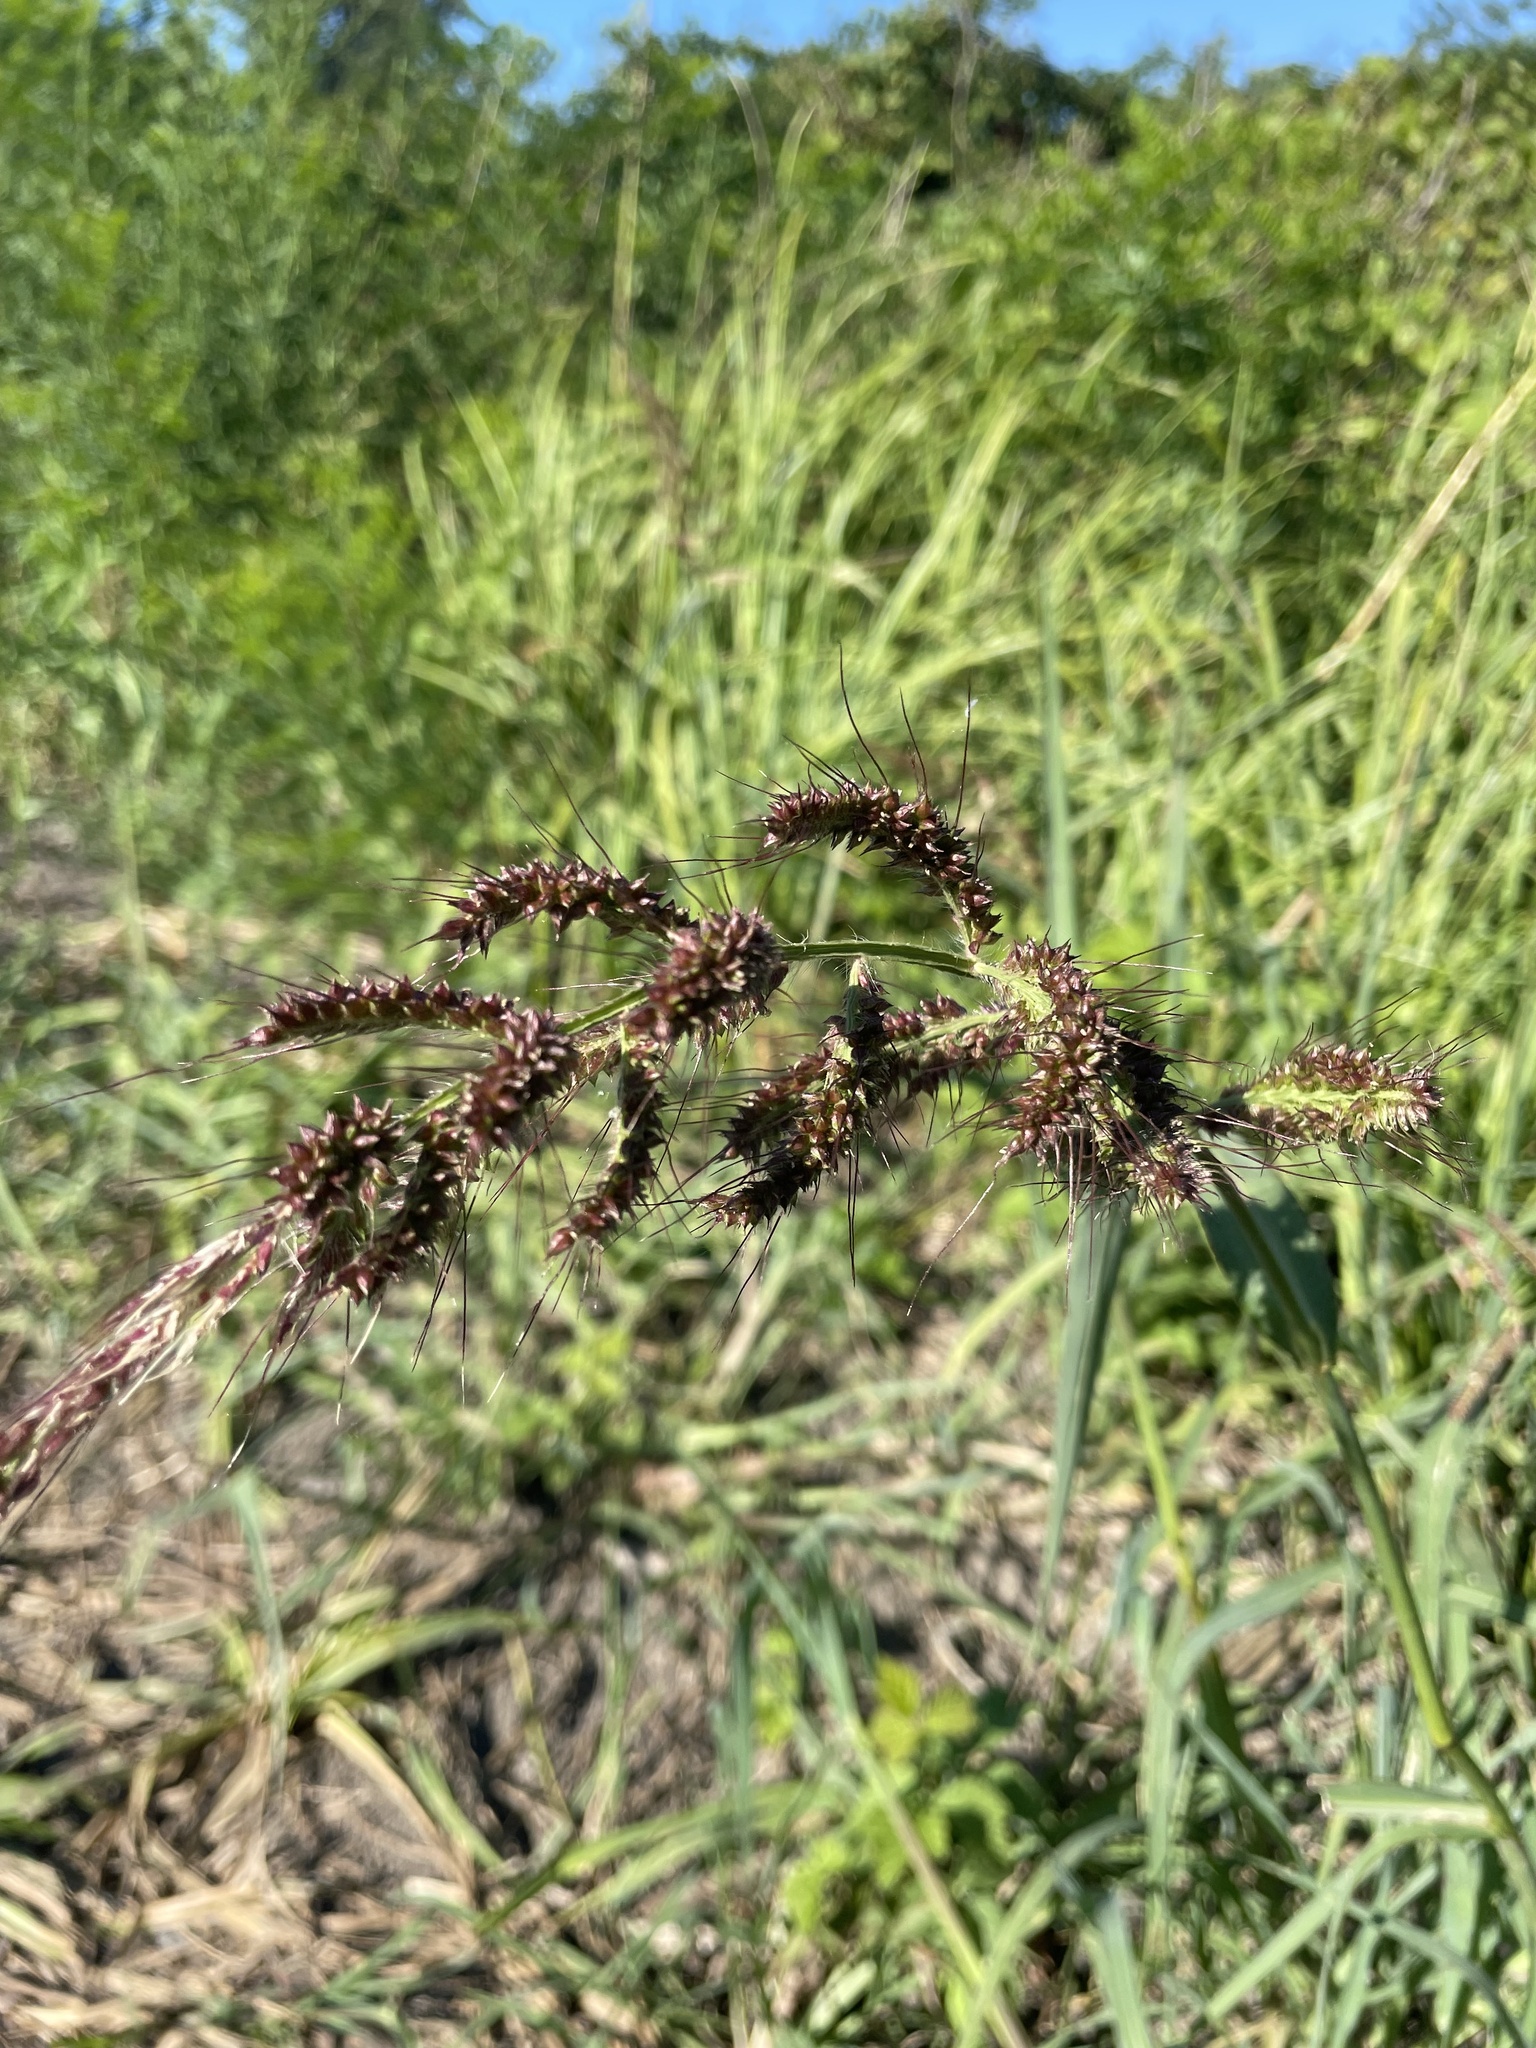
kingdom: Plantae
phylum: Tracheophyta
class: Liliopsida
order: Poales
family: Poaceae
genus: Echinochloa
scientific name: Echinochloa crus-galli
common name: Cockspur
